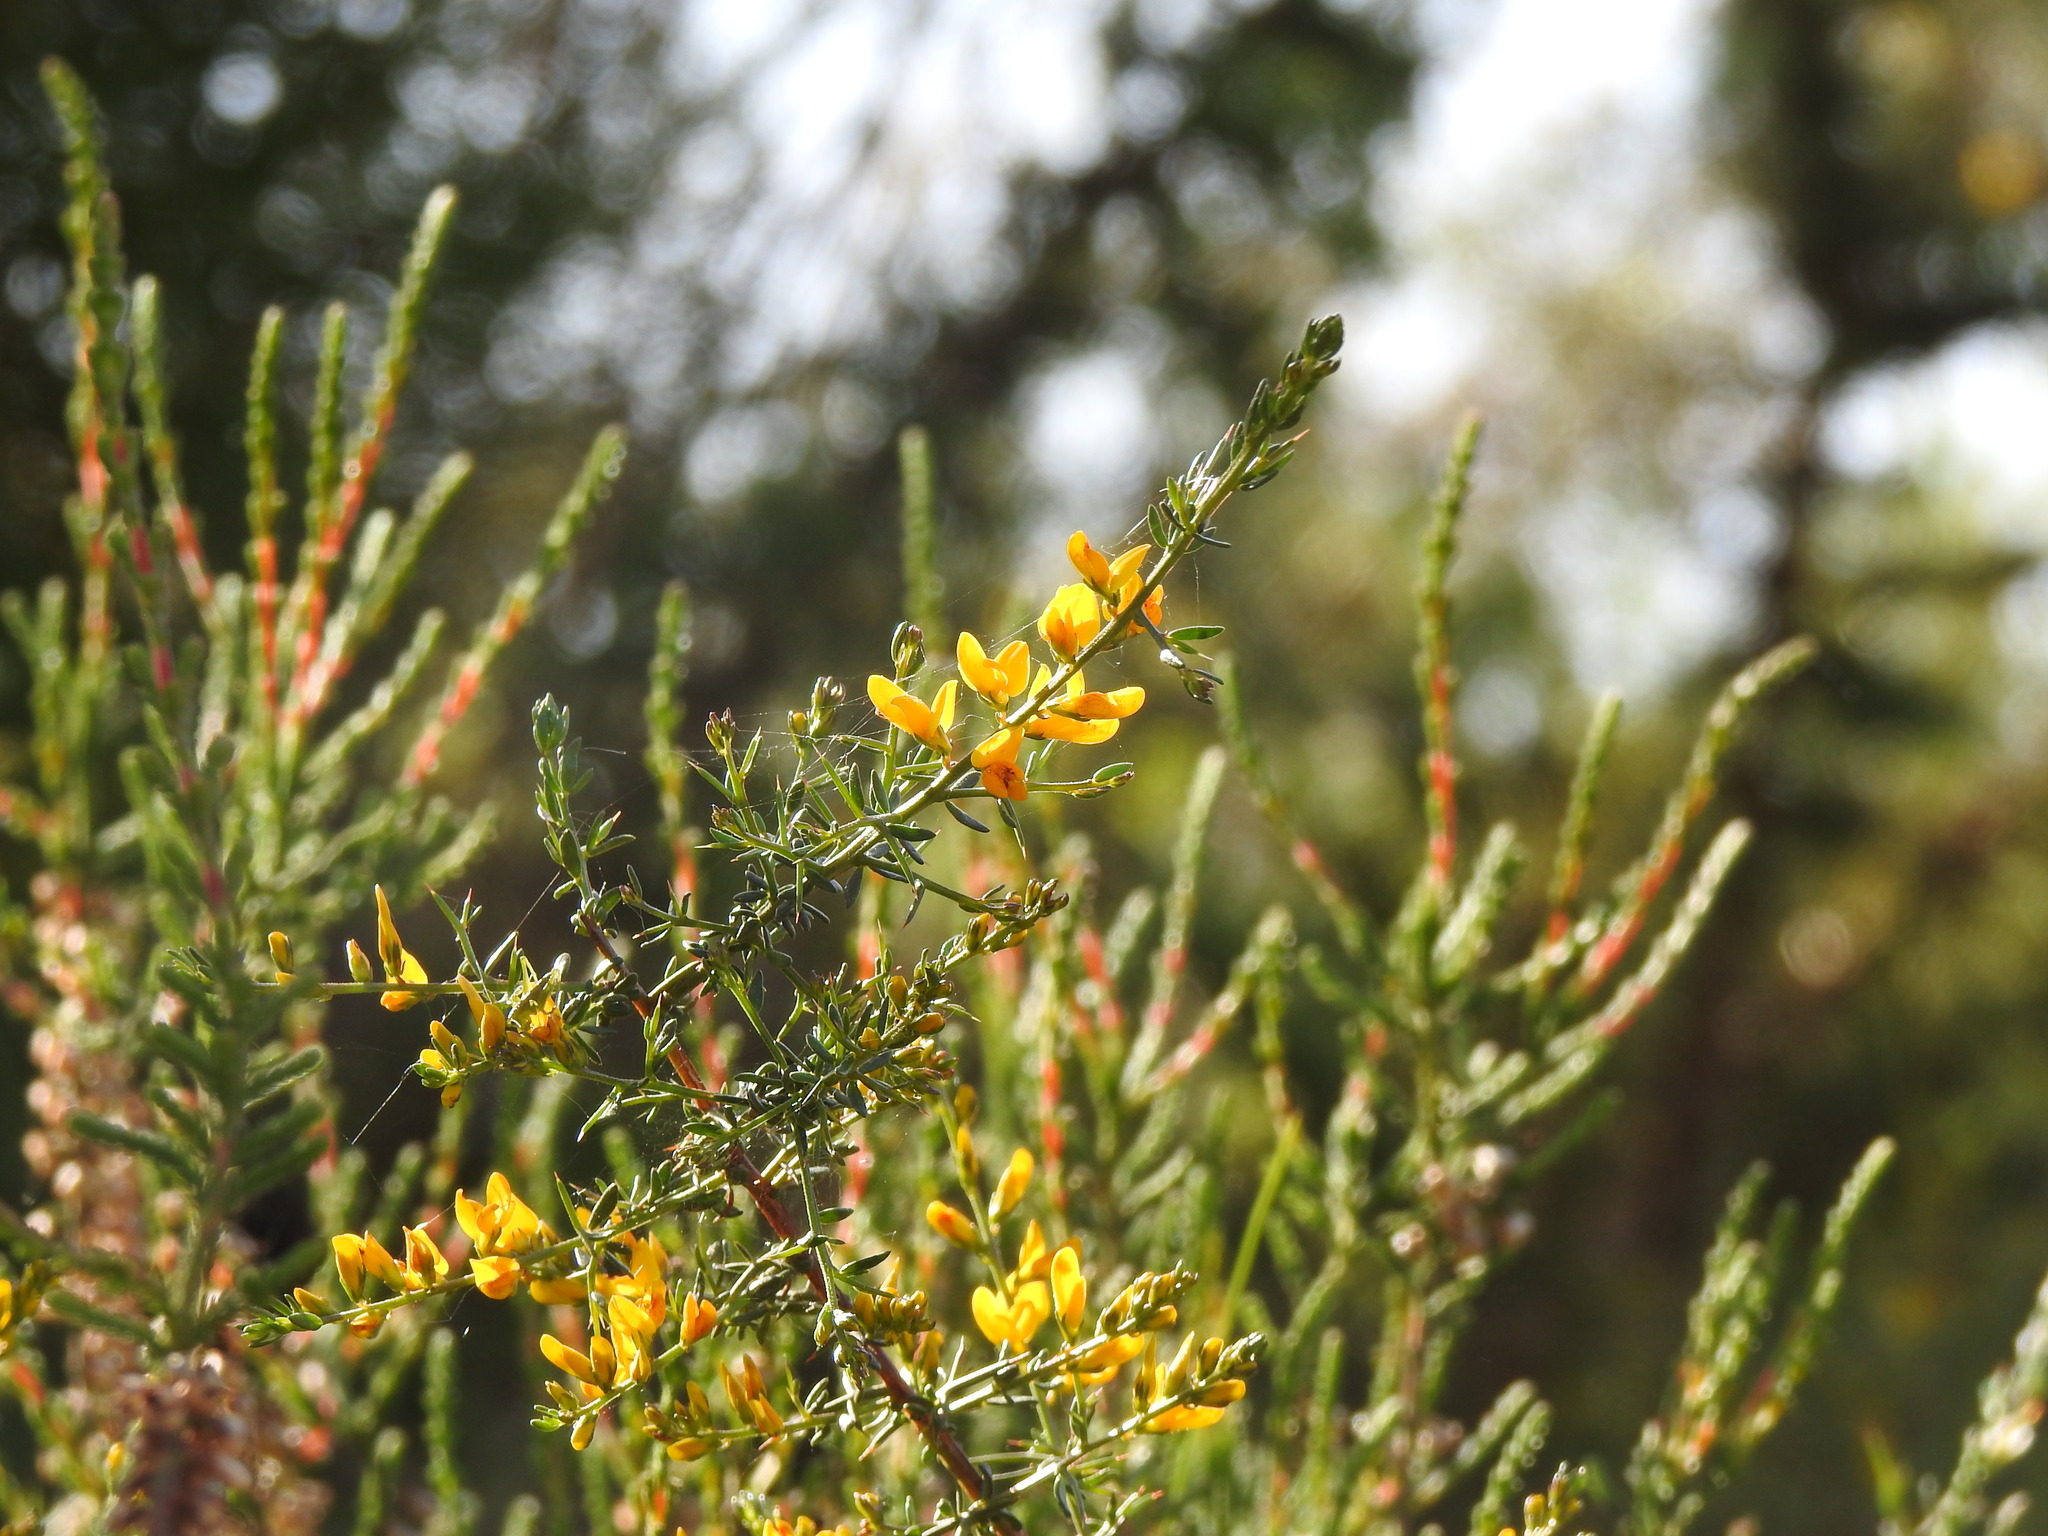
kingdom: Plantae
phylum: Tracheophyta
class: Magnoliopsida
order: Fabales
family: Fabaceae
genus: Genista
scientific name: Genista triacanthos
